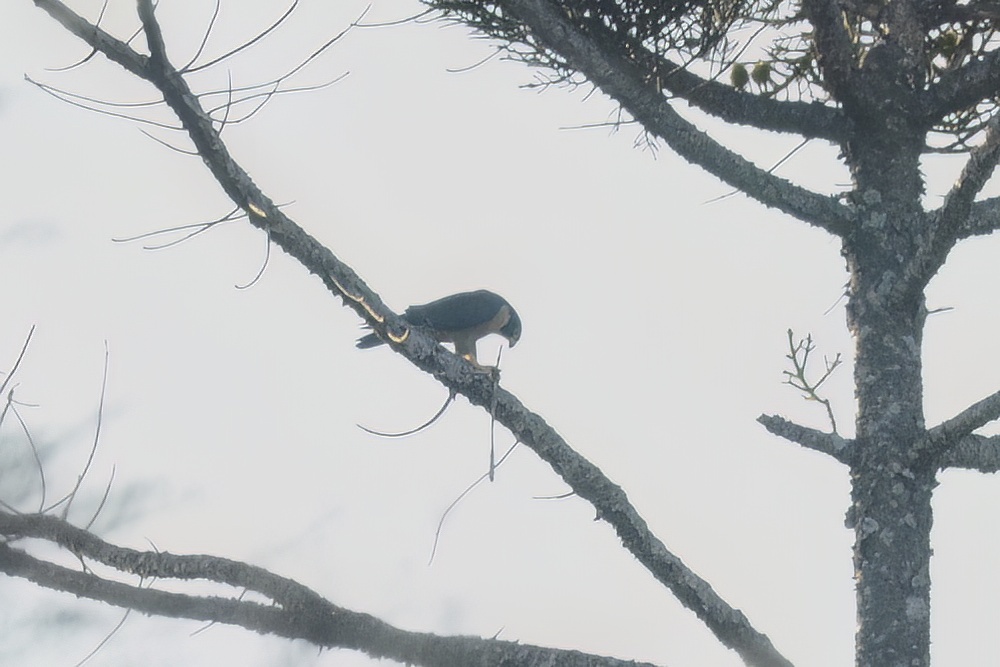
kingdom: Animalia
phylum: Chordata
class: Aves
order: Falconiformes
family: Falconidae
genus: Falco
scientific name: Falco peregrinus
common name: Peregrine falcon
